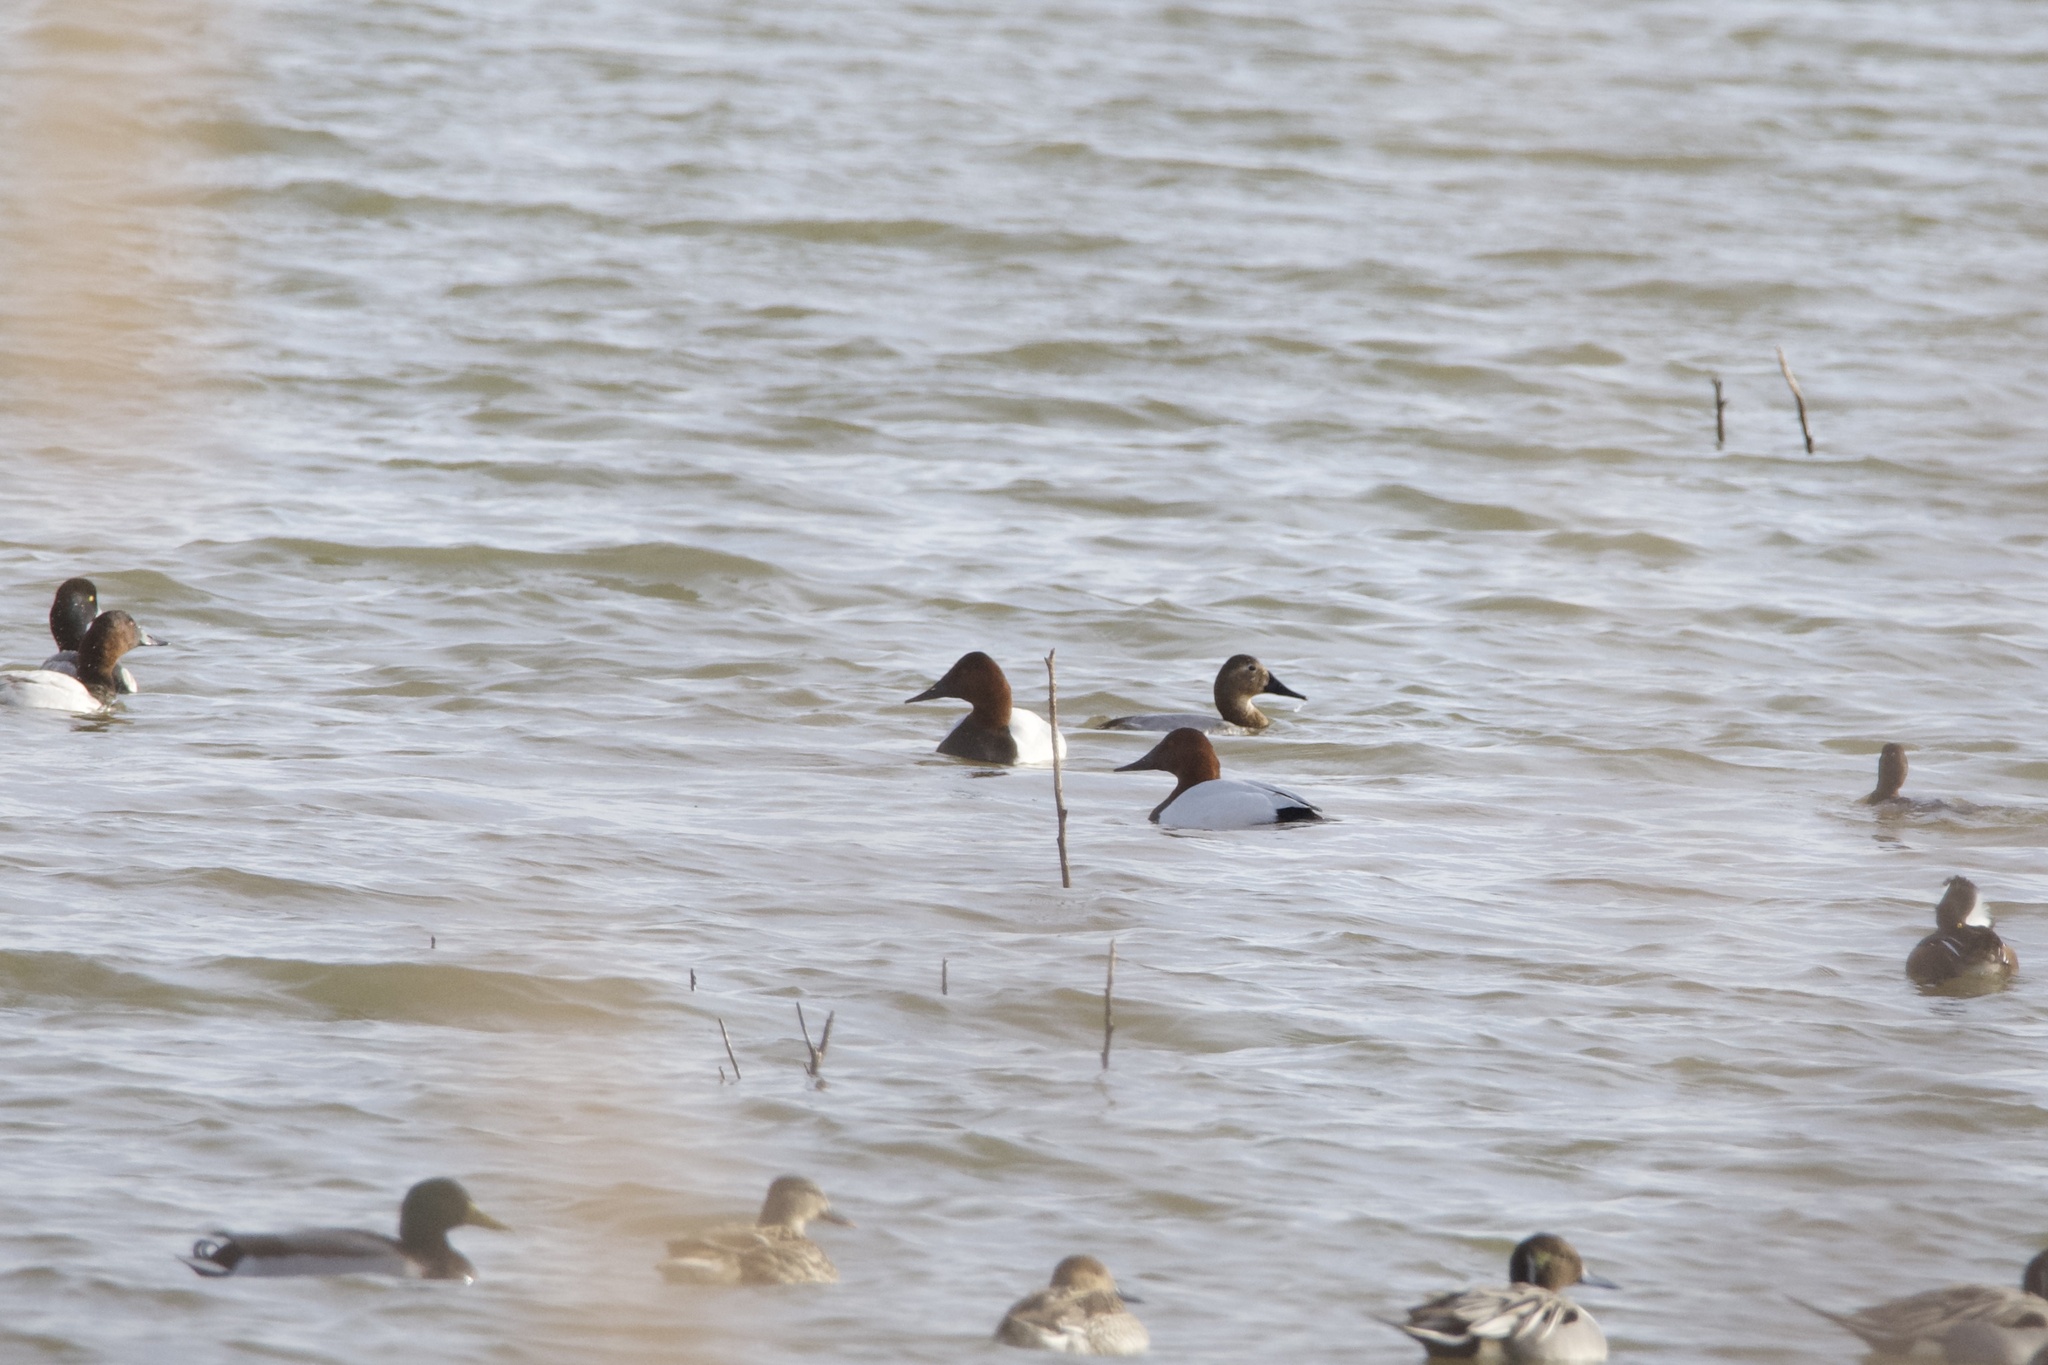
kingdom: Animalia
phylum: Chordata
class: Aves
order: Anseriformes
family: Anatidae
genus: Aythya
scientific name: Aythya valisineria
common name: Canvasback
